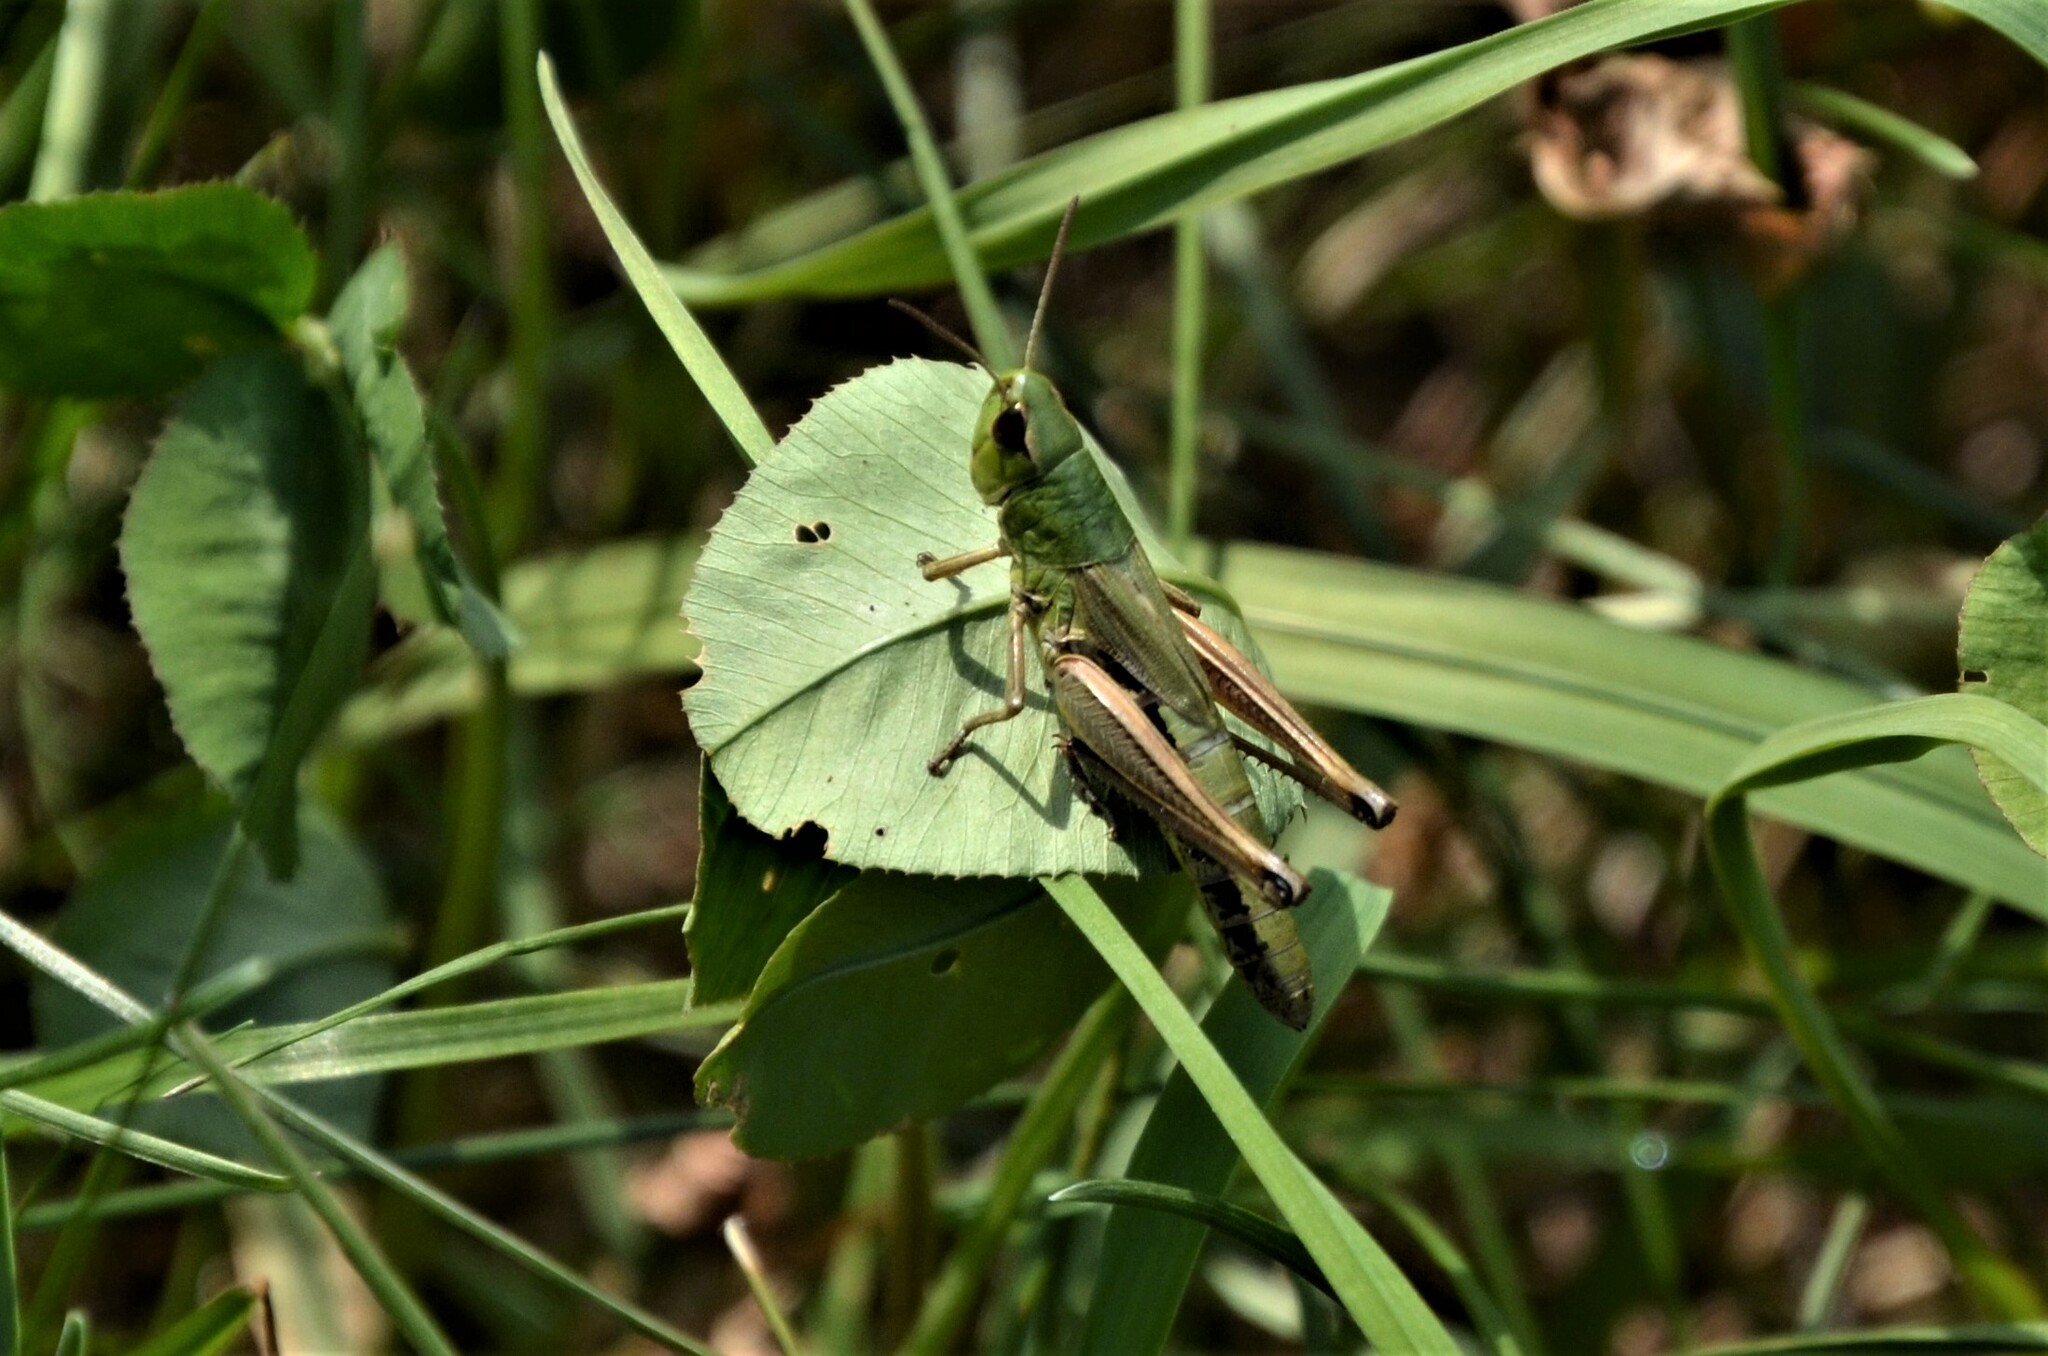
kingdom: Animalia
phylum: Arthropoda
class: Insecta
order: Orthoptera
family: Acrididae
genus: Pseudochorthippus
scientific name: Pseudochorthippus parallelus
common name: Meadow grasshopper
